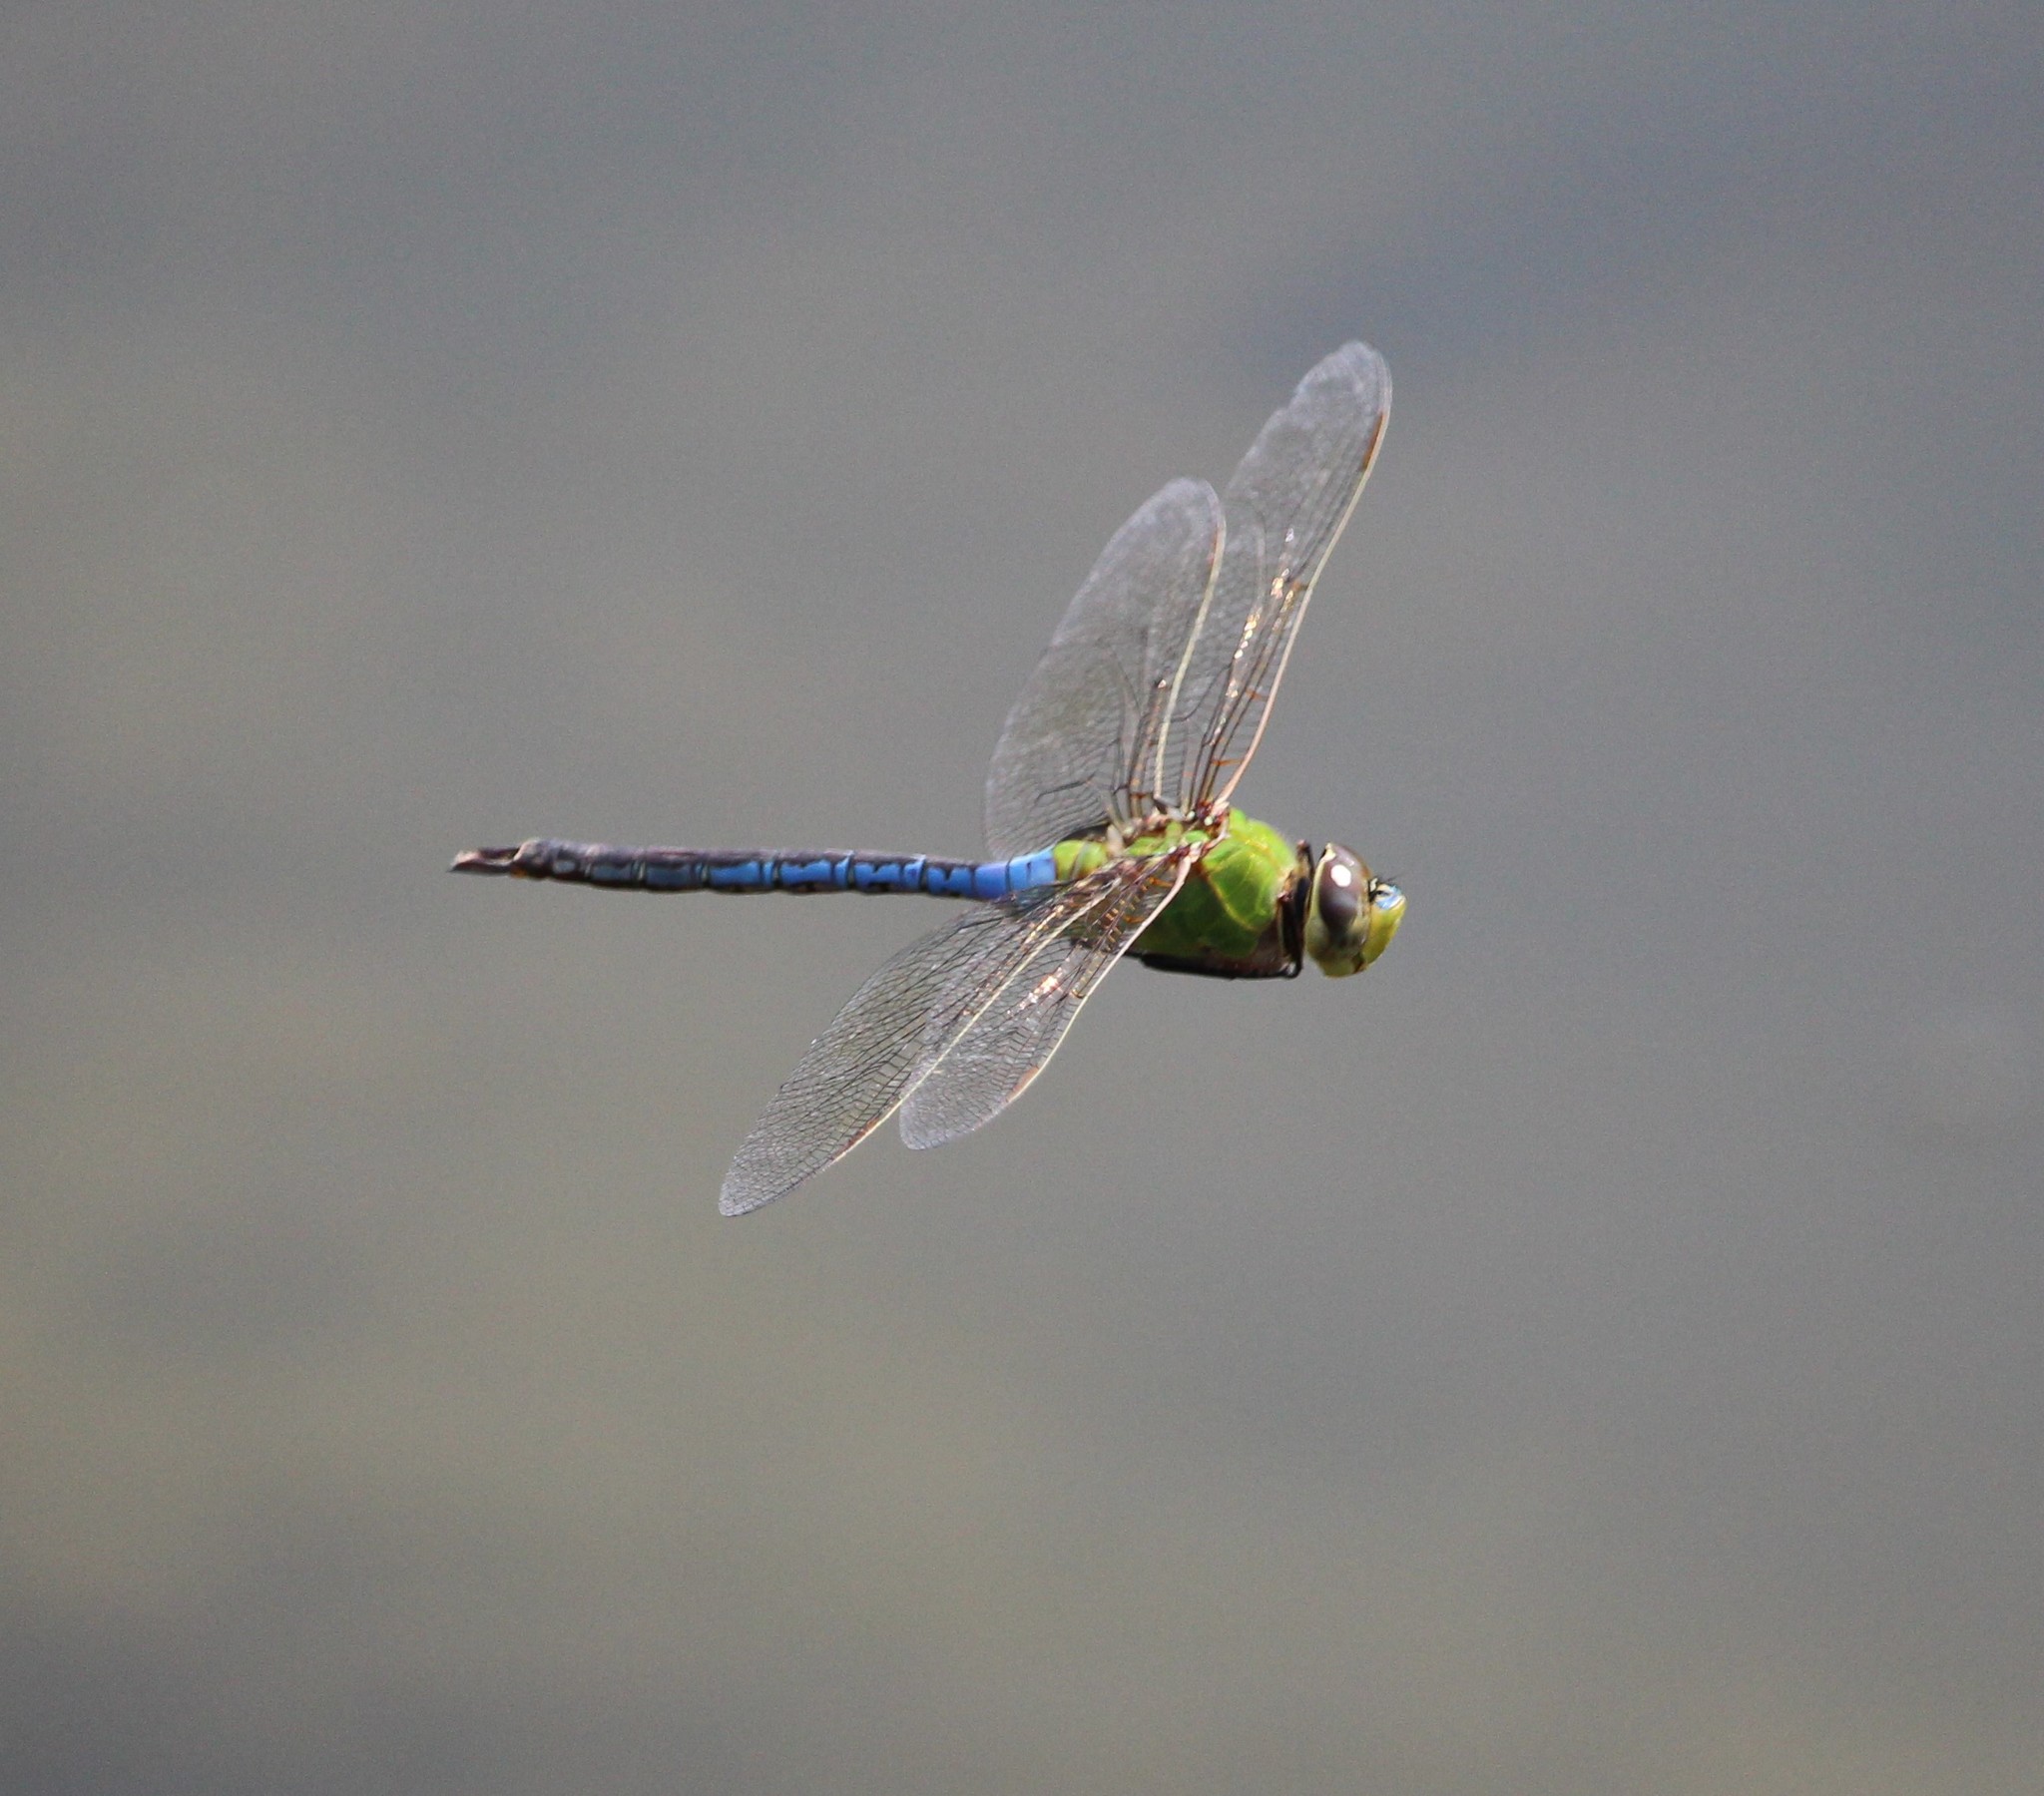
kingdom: Animalia
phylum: Arthropoda
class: Insecta
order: Odonata
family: Aeshnidae
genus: Anax
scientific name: Anax junius
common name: Common green darner
